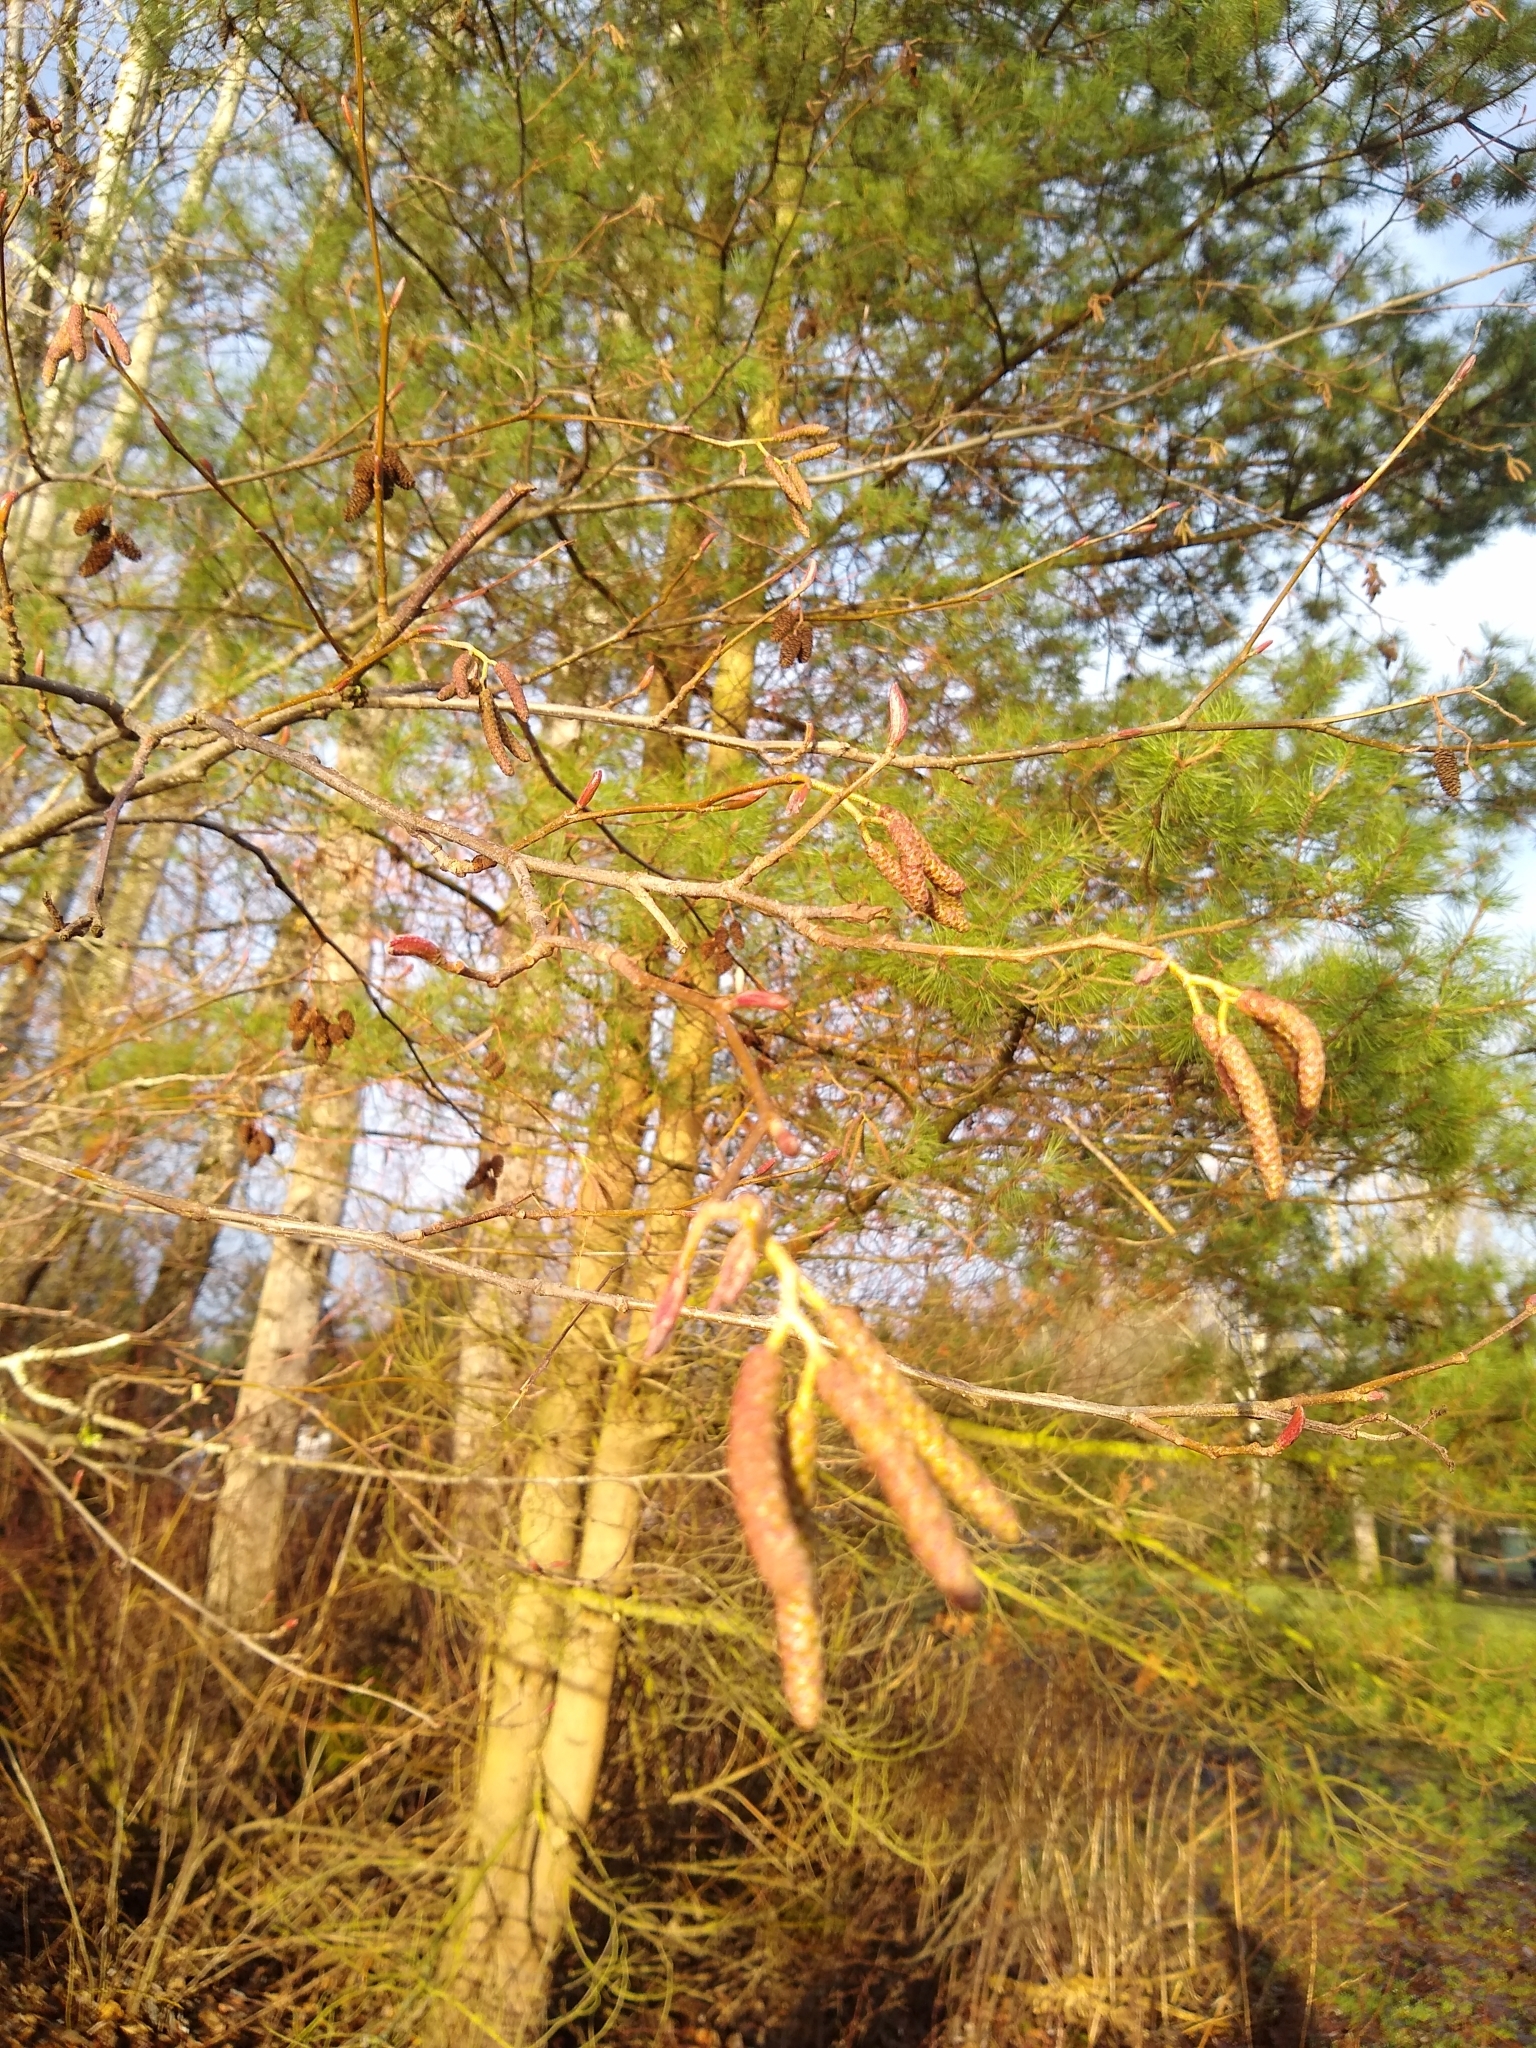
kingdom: Plantae
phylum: Tracheophyta
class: Magnoliopsida
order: Fagales
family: Betulaceae
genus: Alnus
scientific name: Alnus rubra
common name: Red alder
